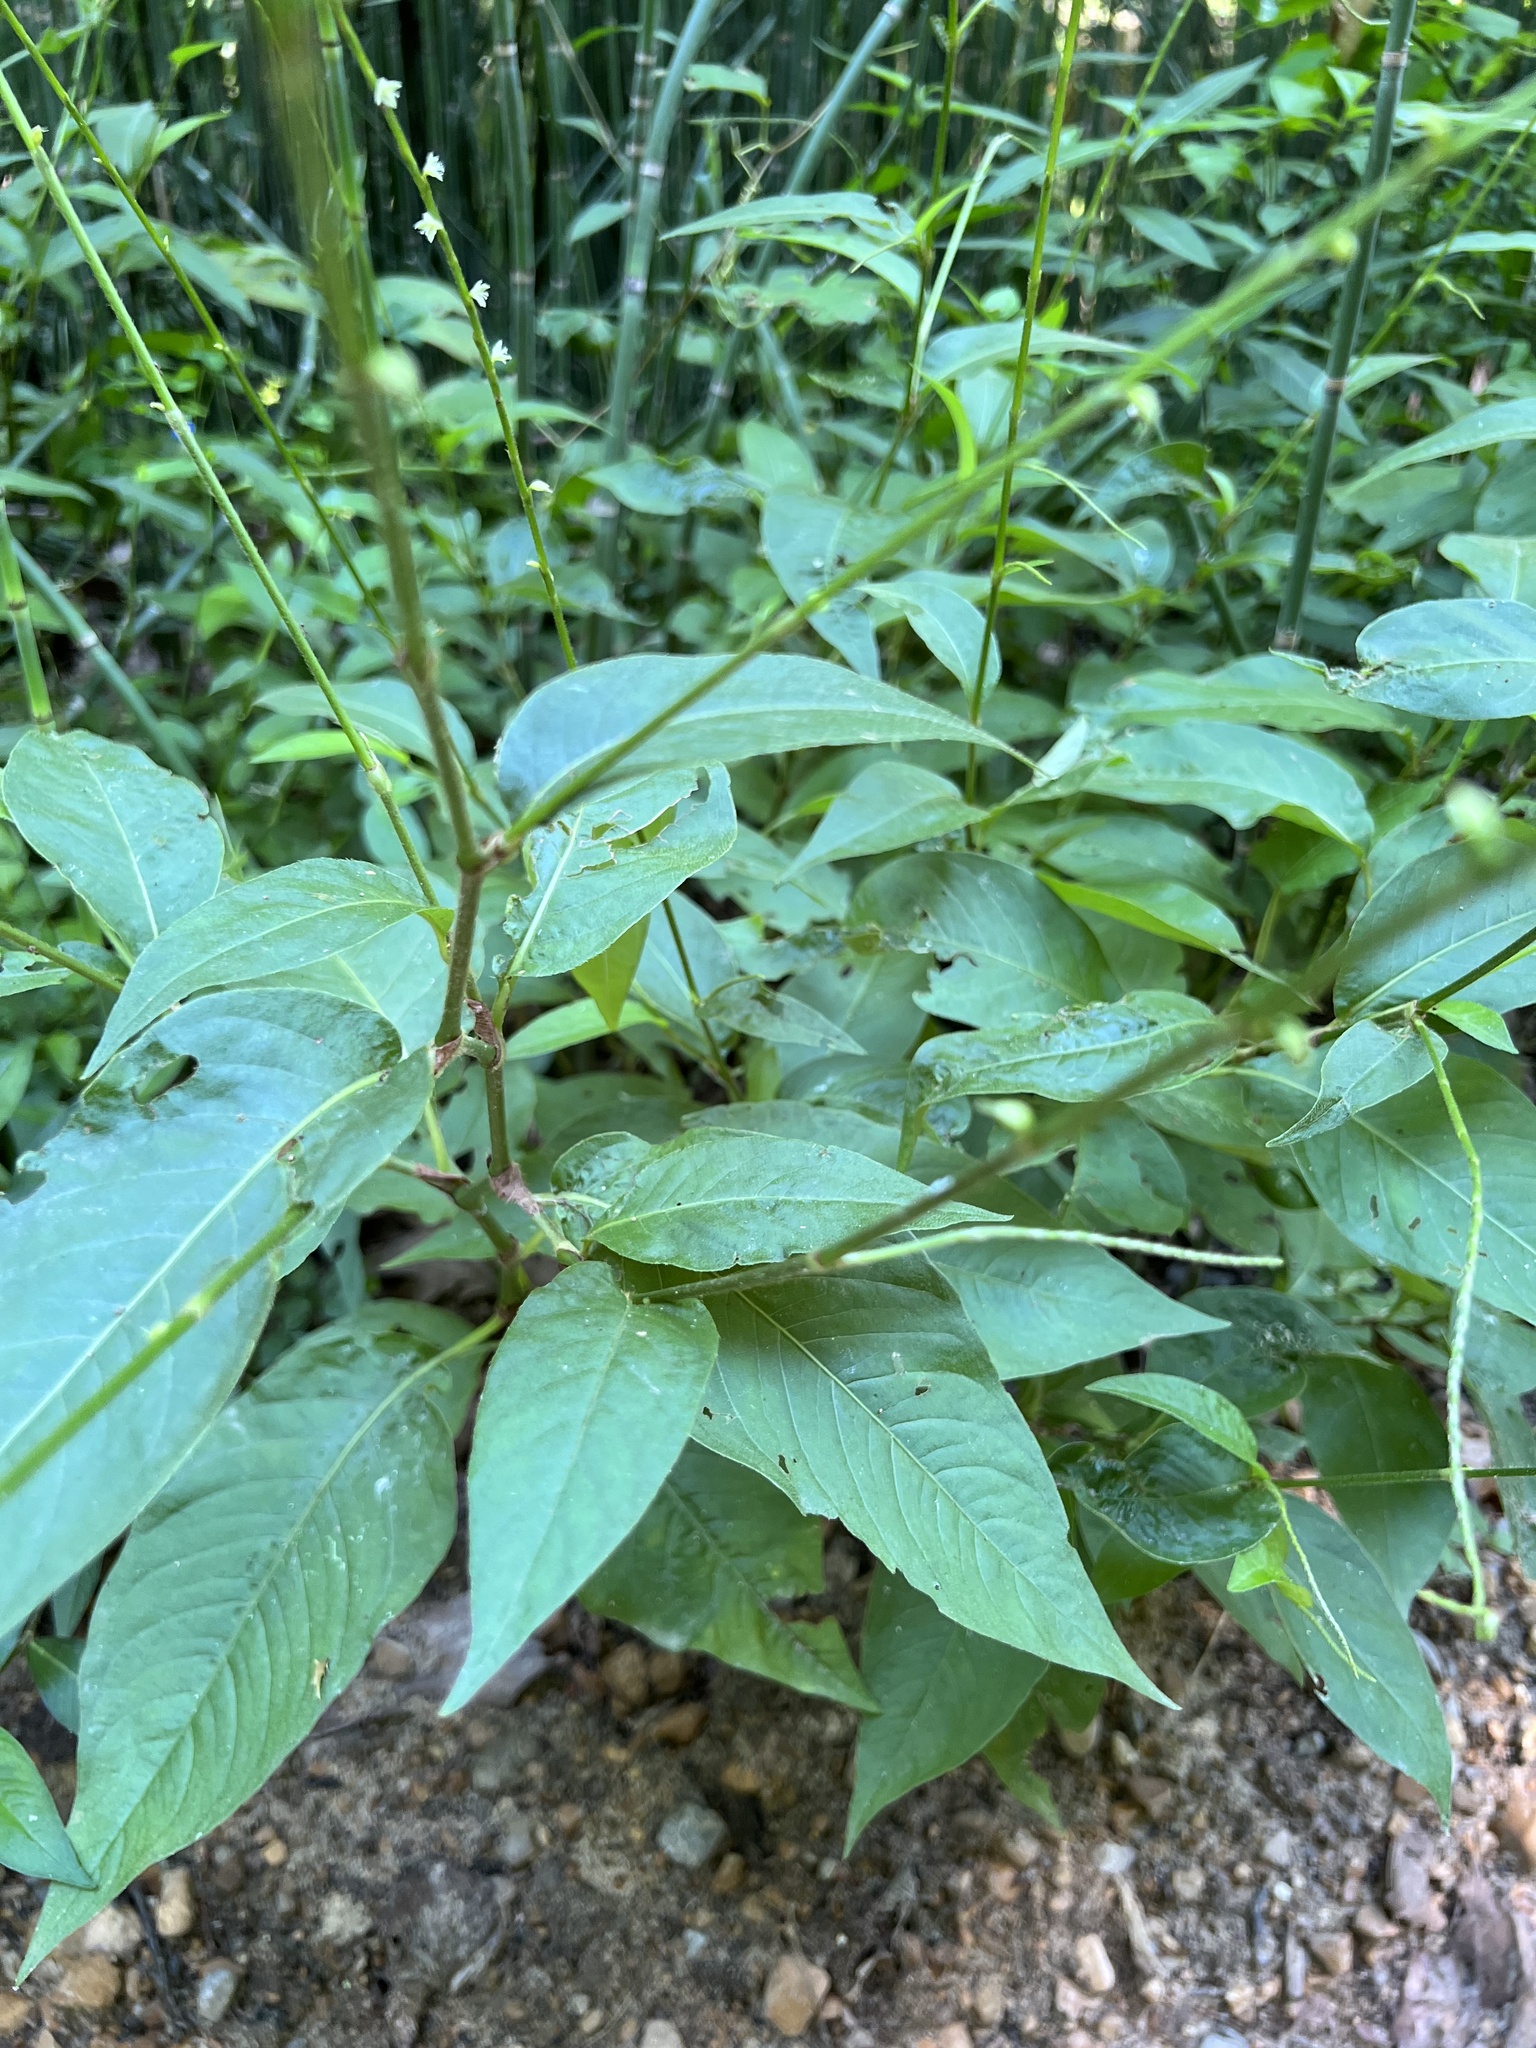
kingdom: Plantae
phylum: Tracheophyta
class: Magnoliopsida
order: Caryophyllales
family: Polygonaceae
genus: Persicaria
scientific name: Persicaria virginiana
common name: Jumpseed
